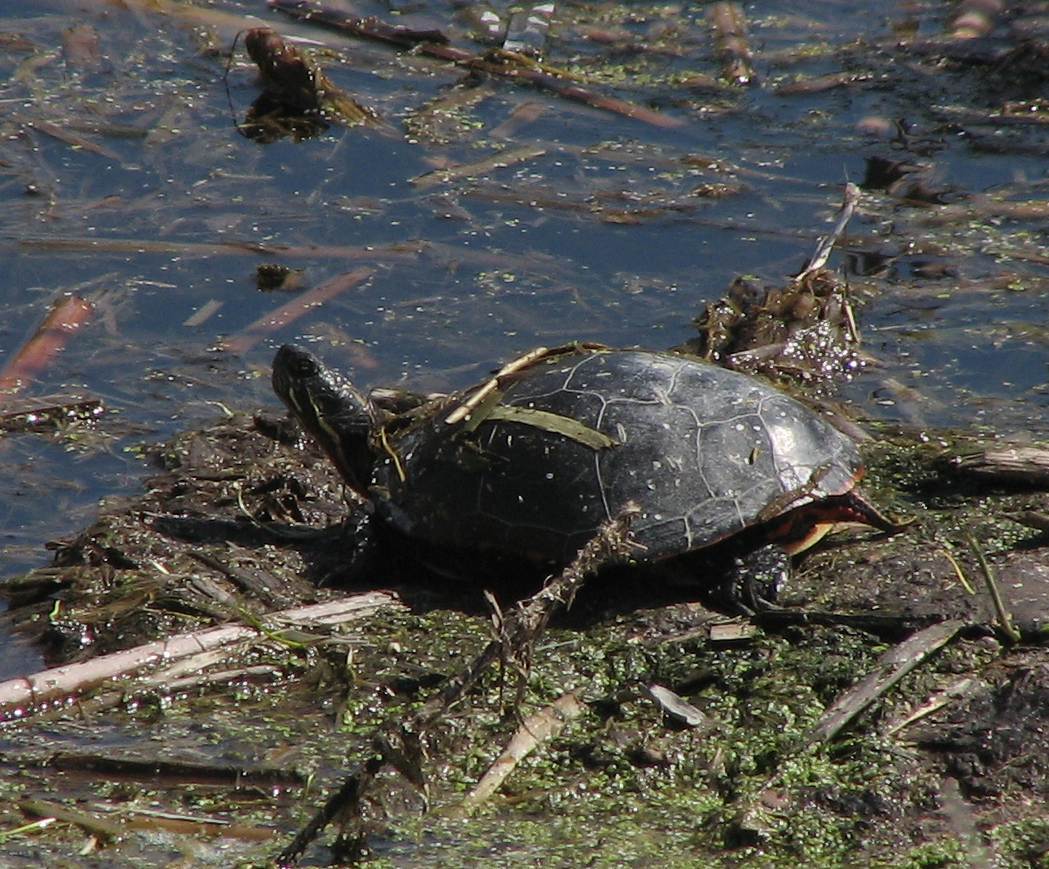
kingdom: Animalia
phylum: Chordata
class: Testudines
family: Emydidae
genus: Chrysemys
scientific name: Chrysemys picta
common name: Painted turtle
